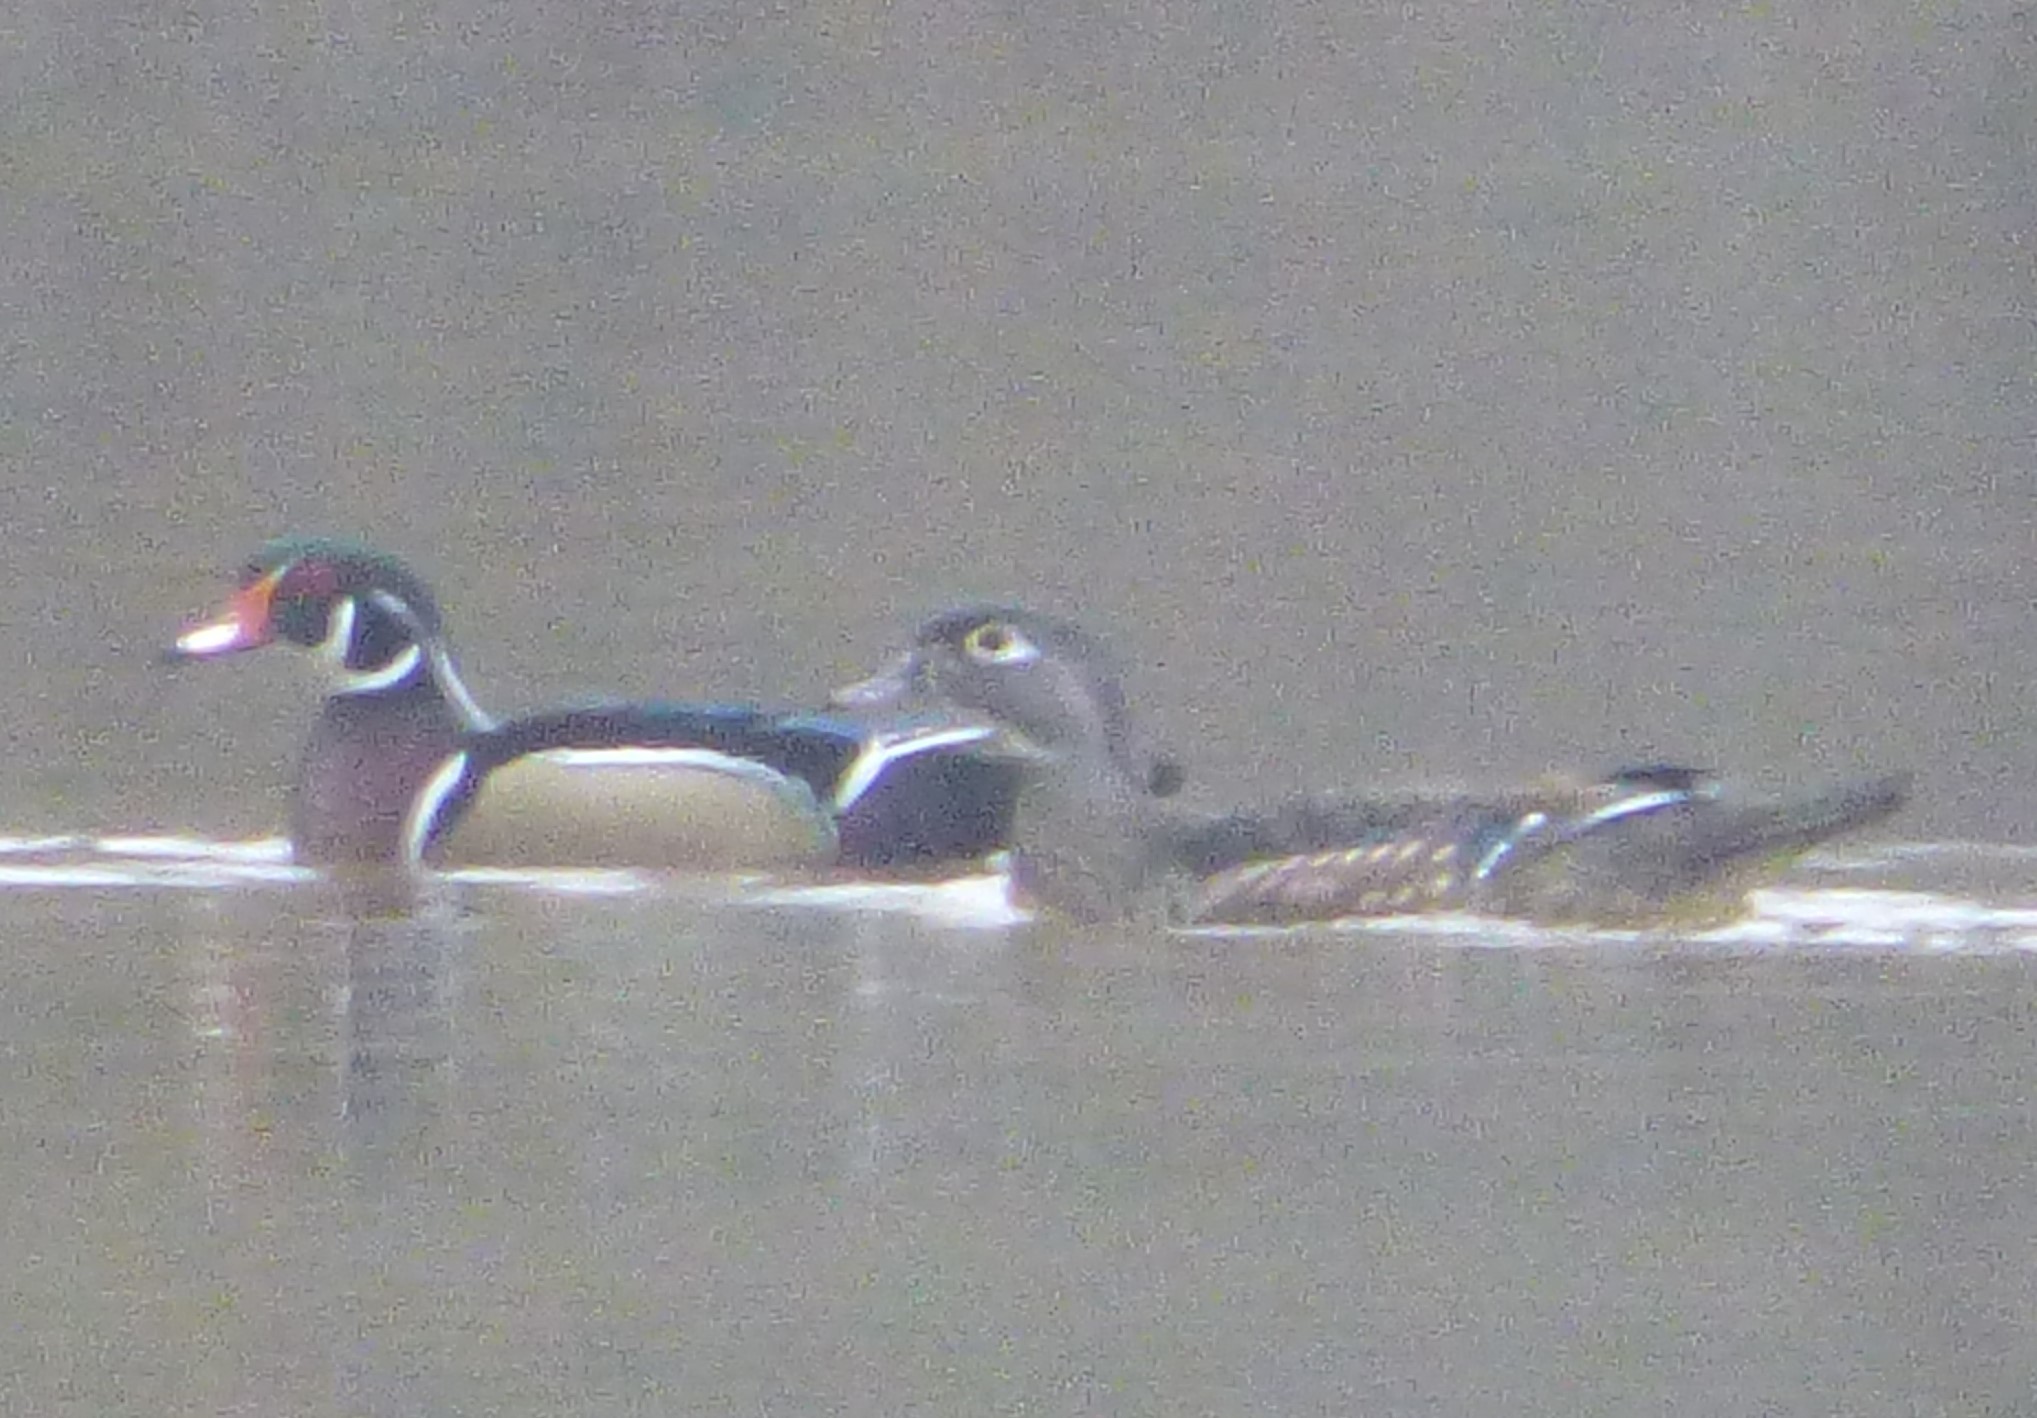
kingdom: Animalia
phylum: Chordata
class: Aves
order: Anseriformes
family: Anatidae
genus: Aix
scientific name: Aix sponsa
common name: Wood duck
